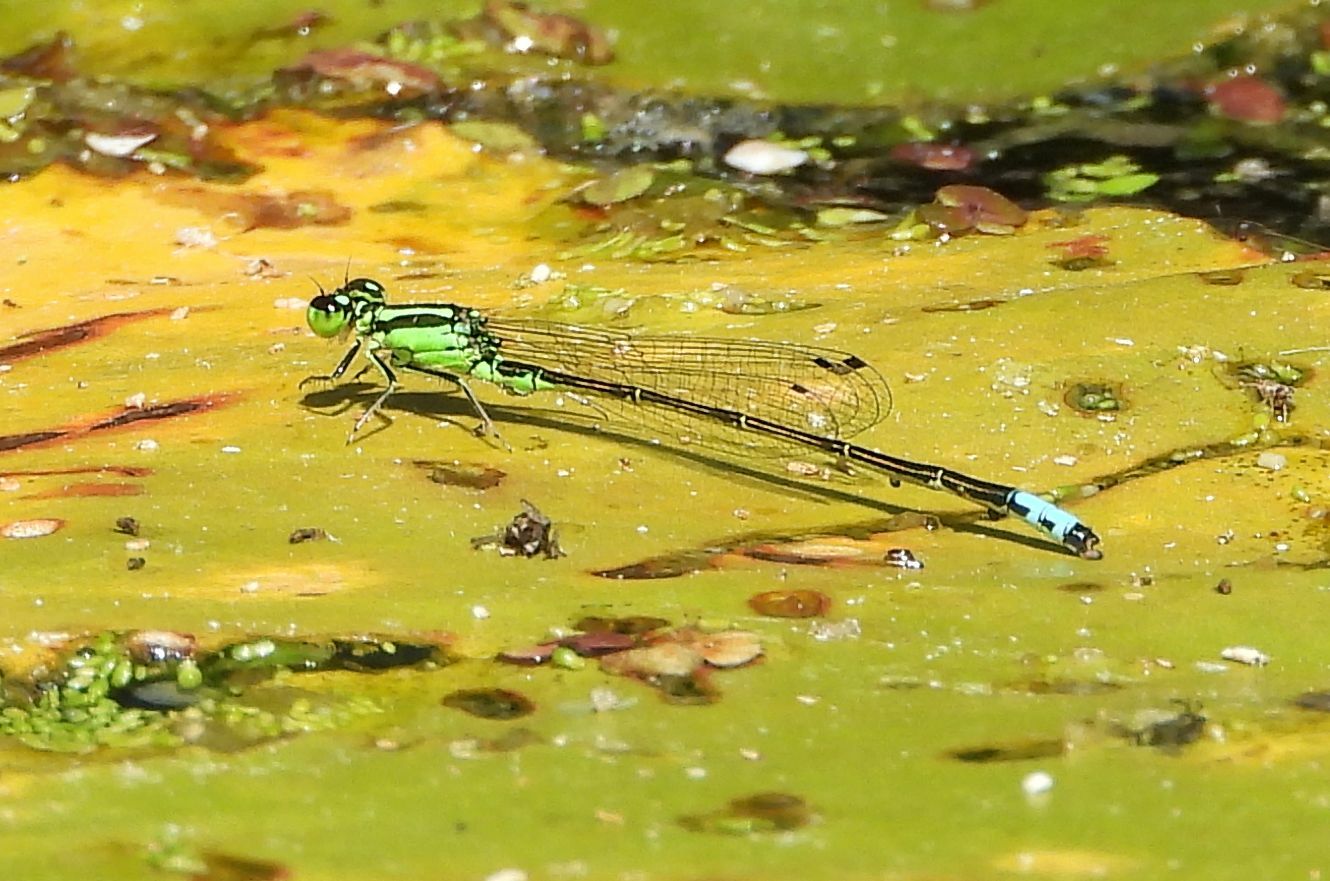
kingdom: Animalia
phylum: Arthropoda
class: Insecta
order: Odonata
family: Coenagrionidae
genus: Ischnura
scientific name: Ischnura verticalis
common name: Eastern forktail
